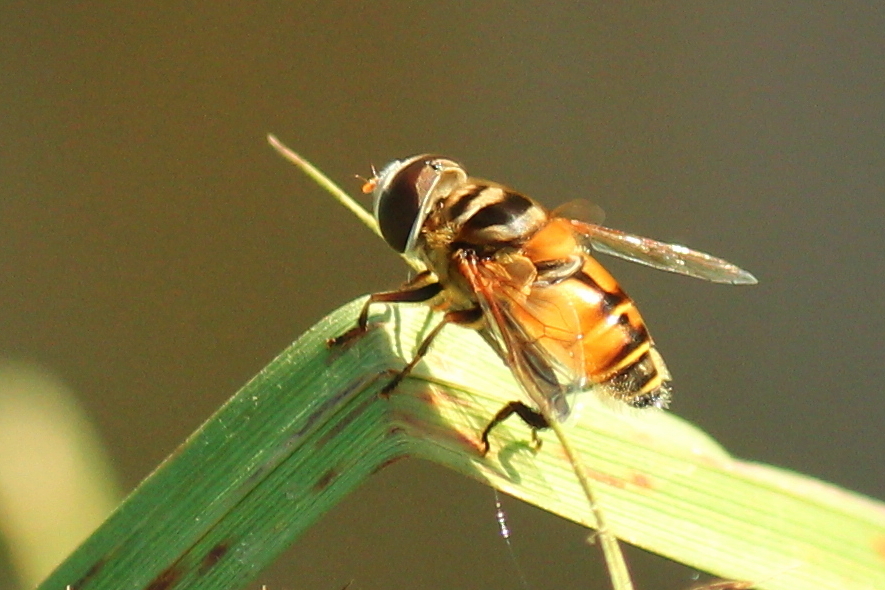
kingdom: Animalia
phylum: Arthropoda
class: Insecta
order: Diptera
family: Syrphidae
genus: Palpada
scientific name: Palpada vinetorum
